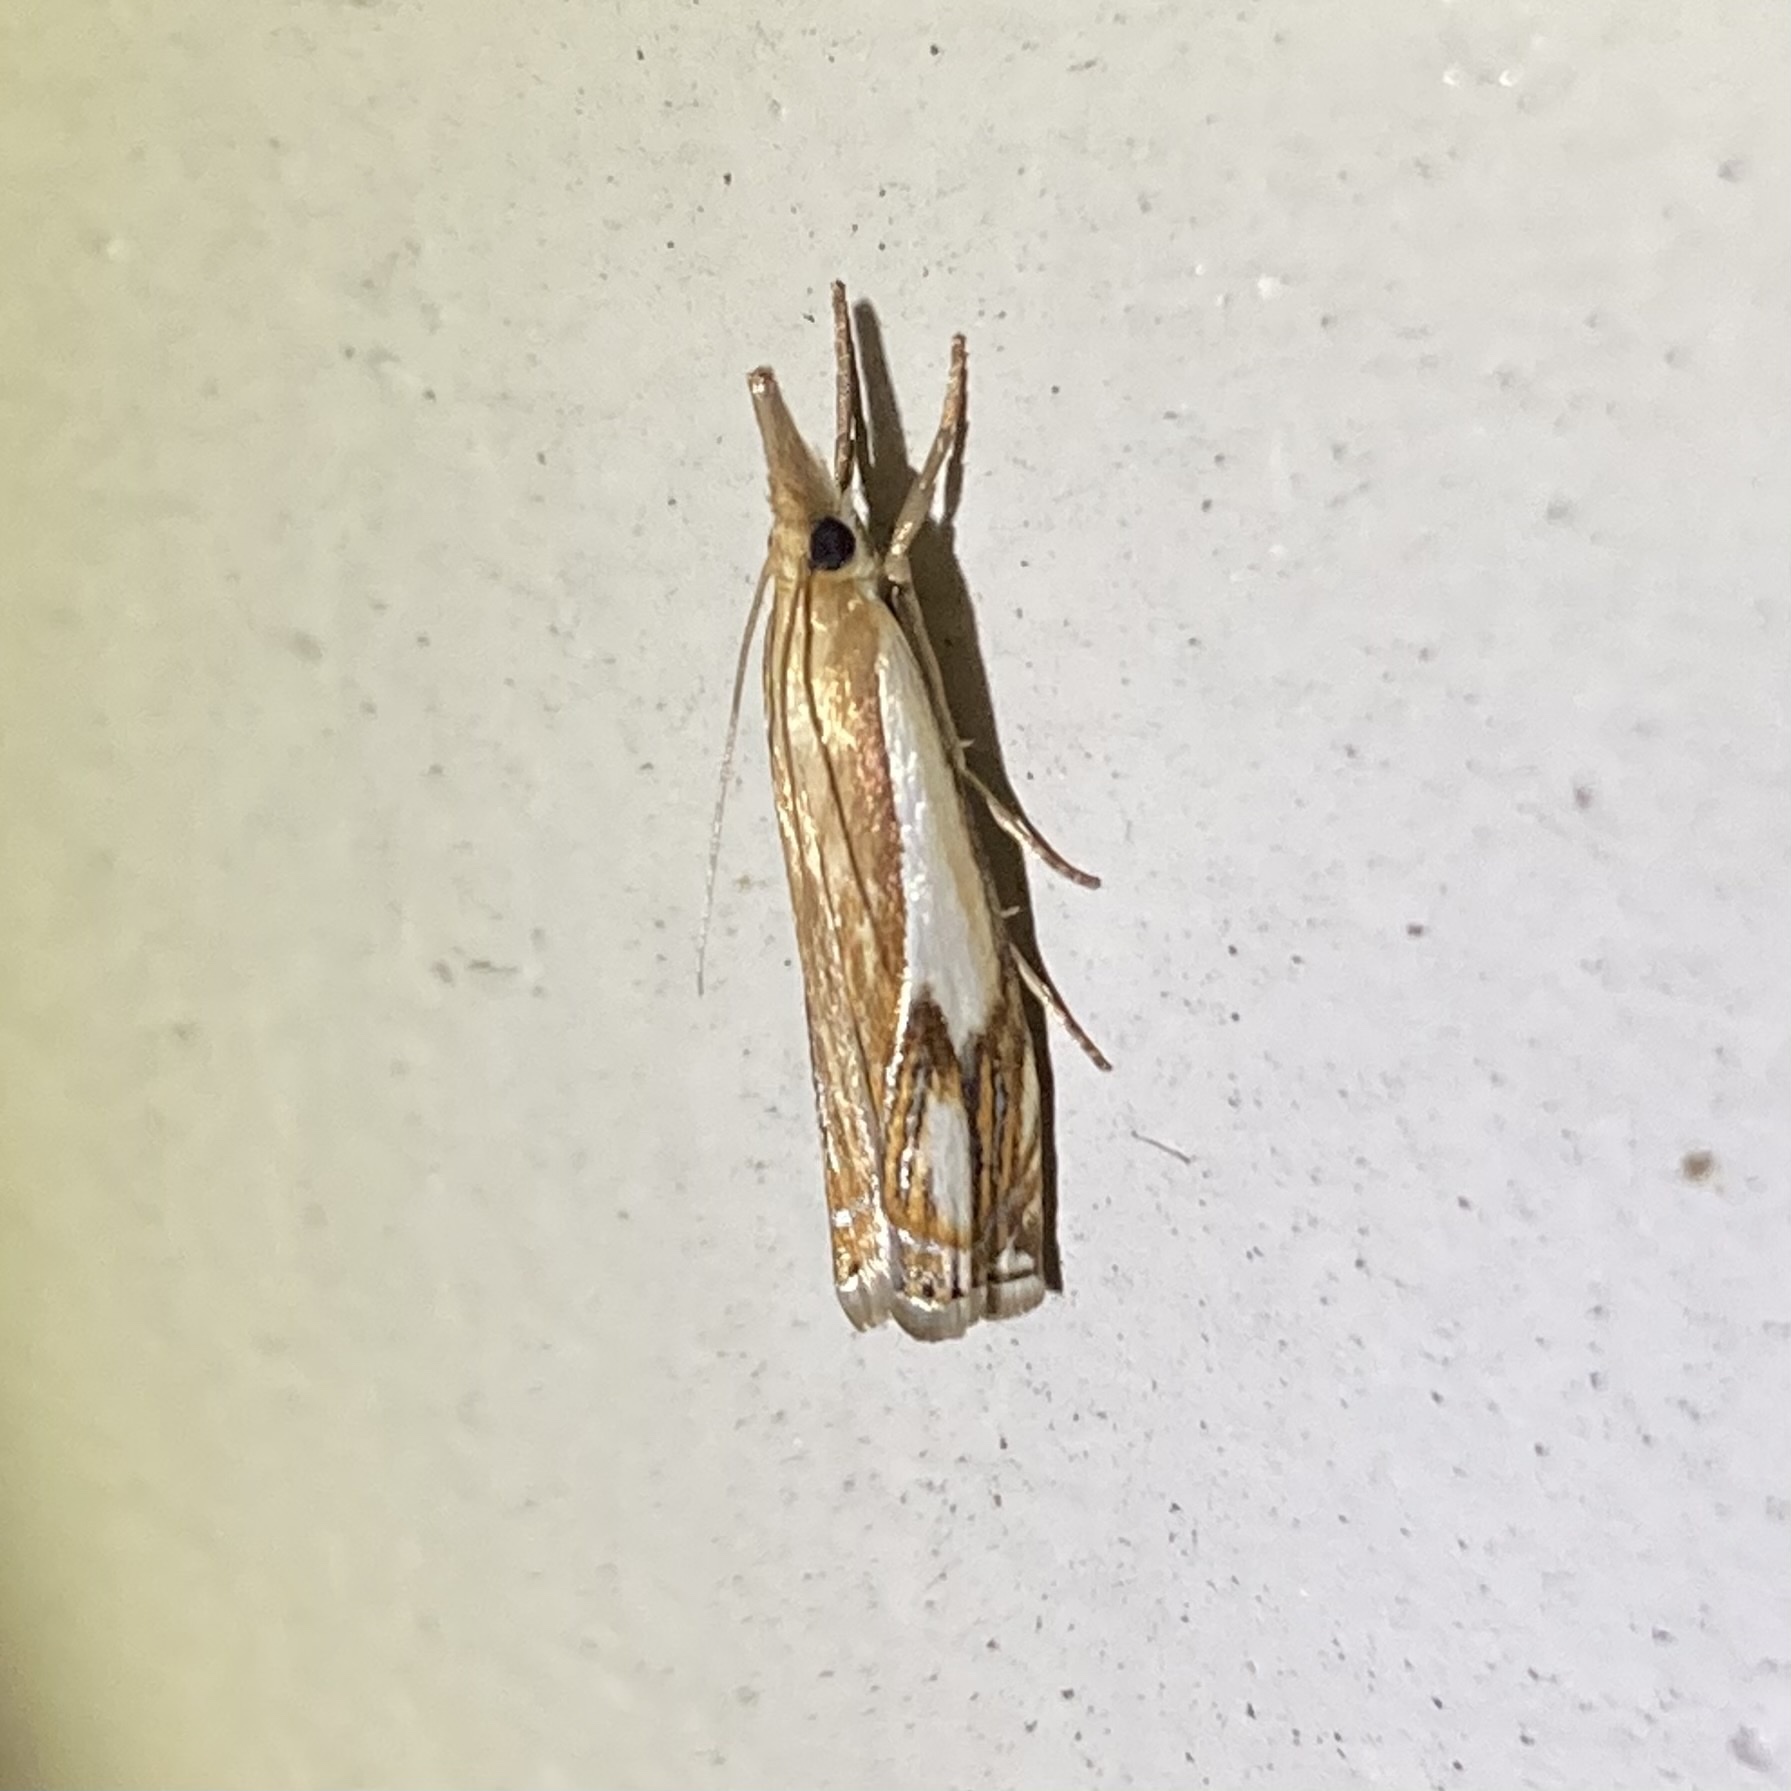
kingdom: Animalia
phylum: Arthropoda
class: Insecta
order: Lepidoptera
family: Crambidae
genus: Crambus
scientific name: Crambus agitatellus
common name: Double-banded grass-veneer
